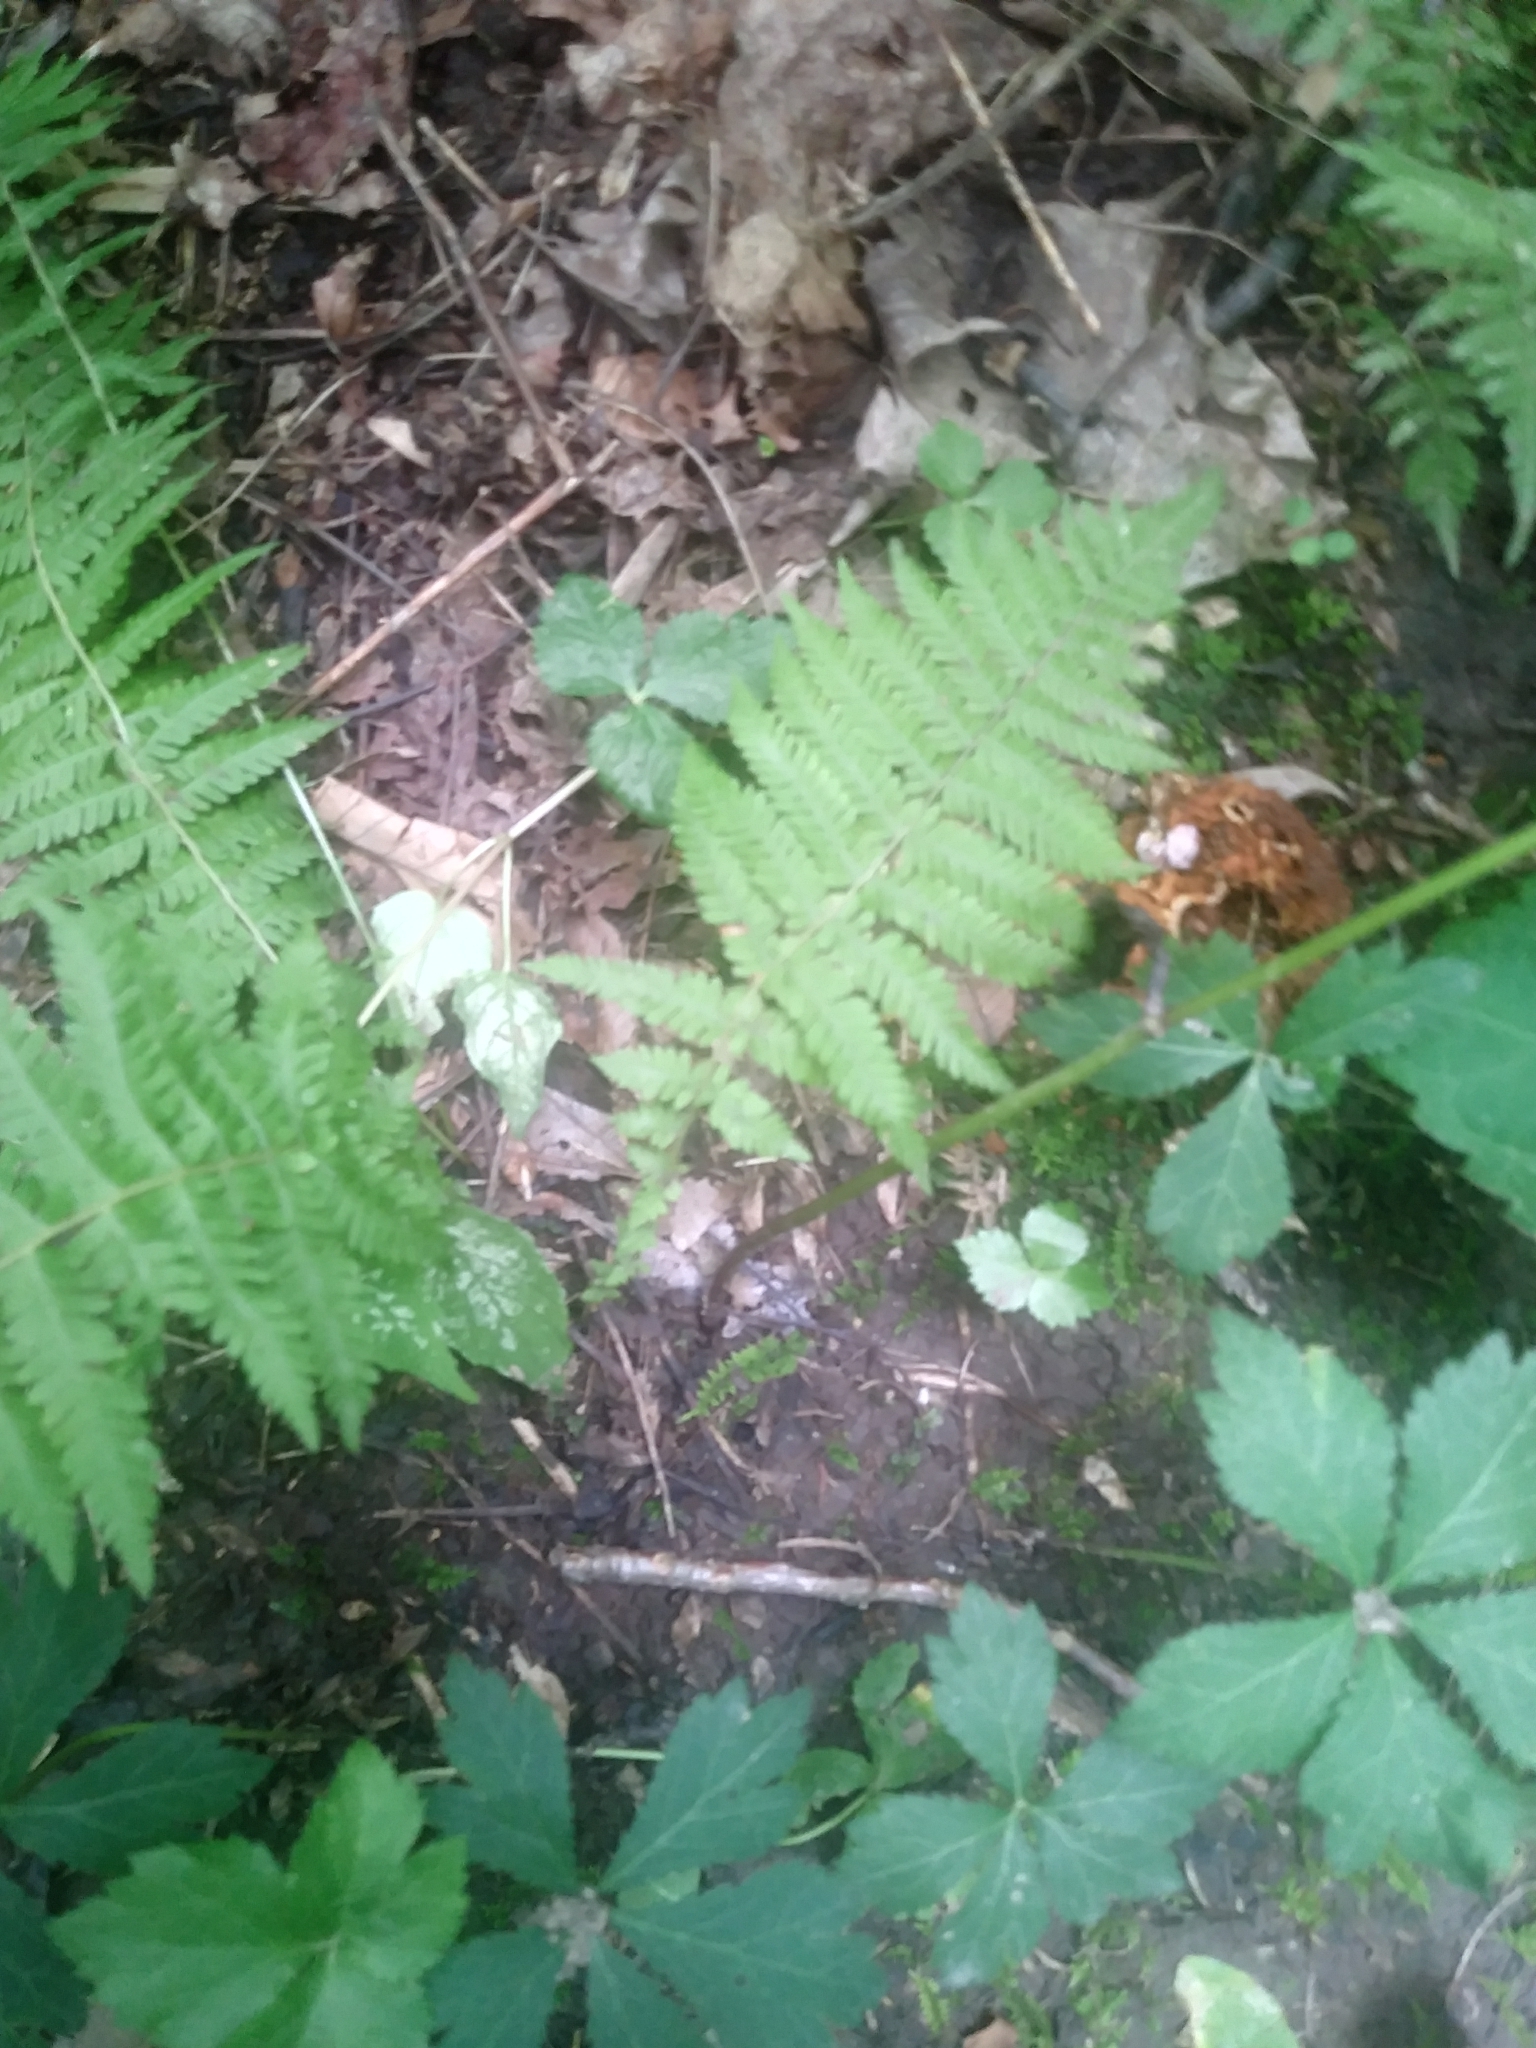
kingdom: Plantae
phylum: Tracheophyta
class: Polypodiopsida
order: Polypodiales
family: Thelypteridaceae
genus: Amauropelta
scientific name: Amauropelta noveboracensis
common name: New york fern
